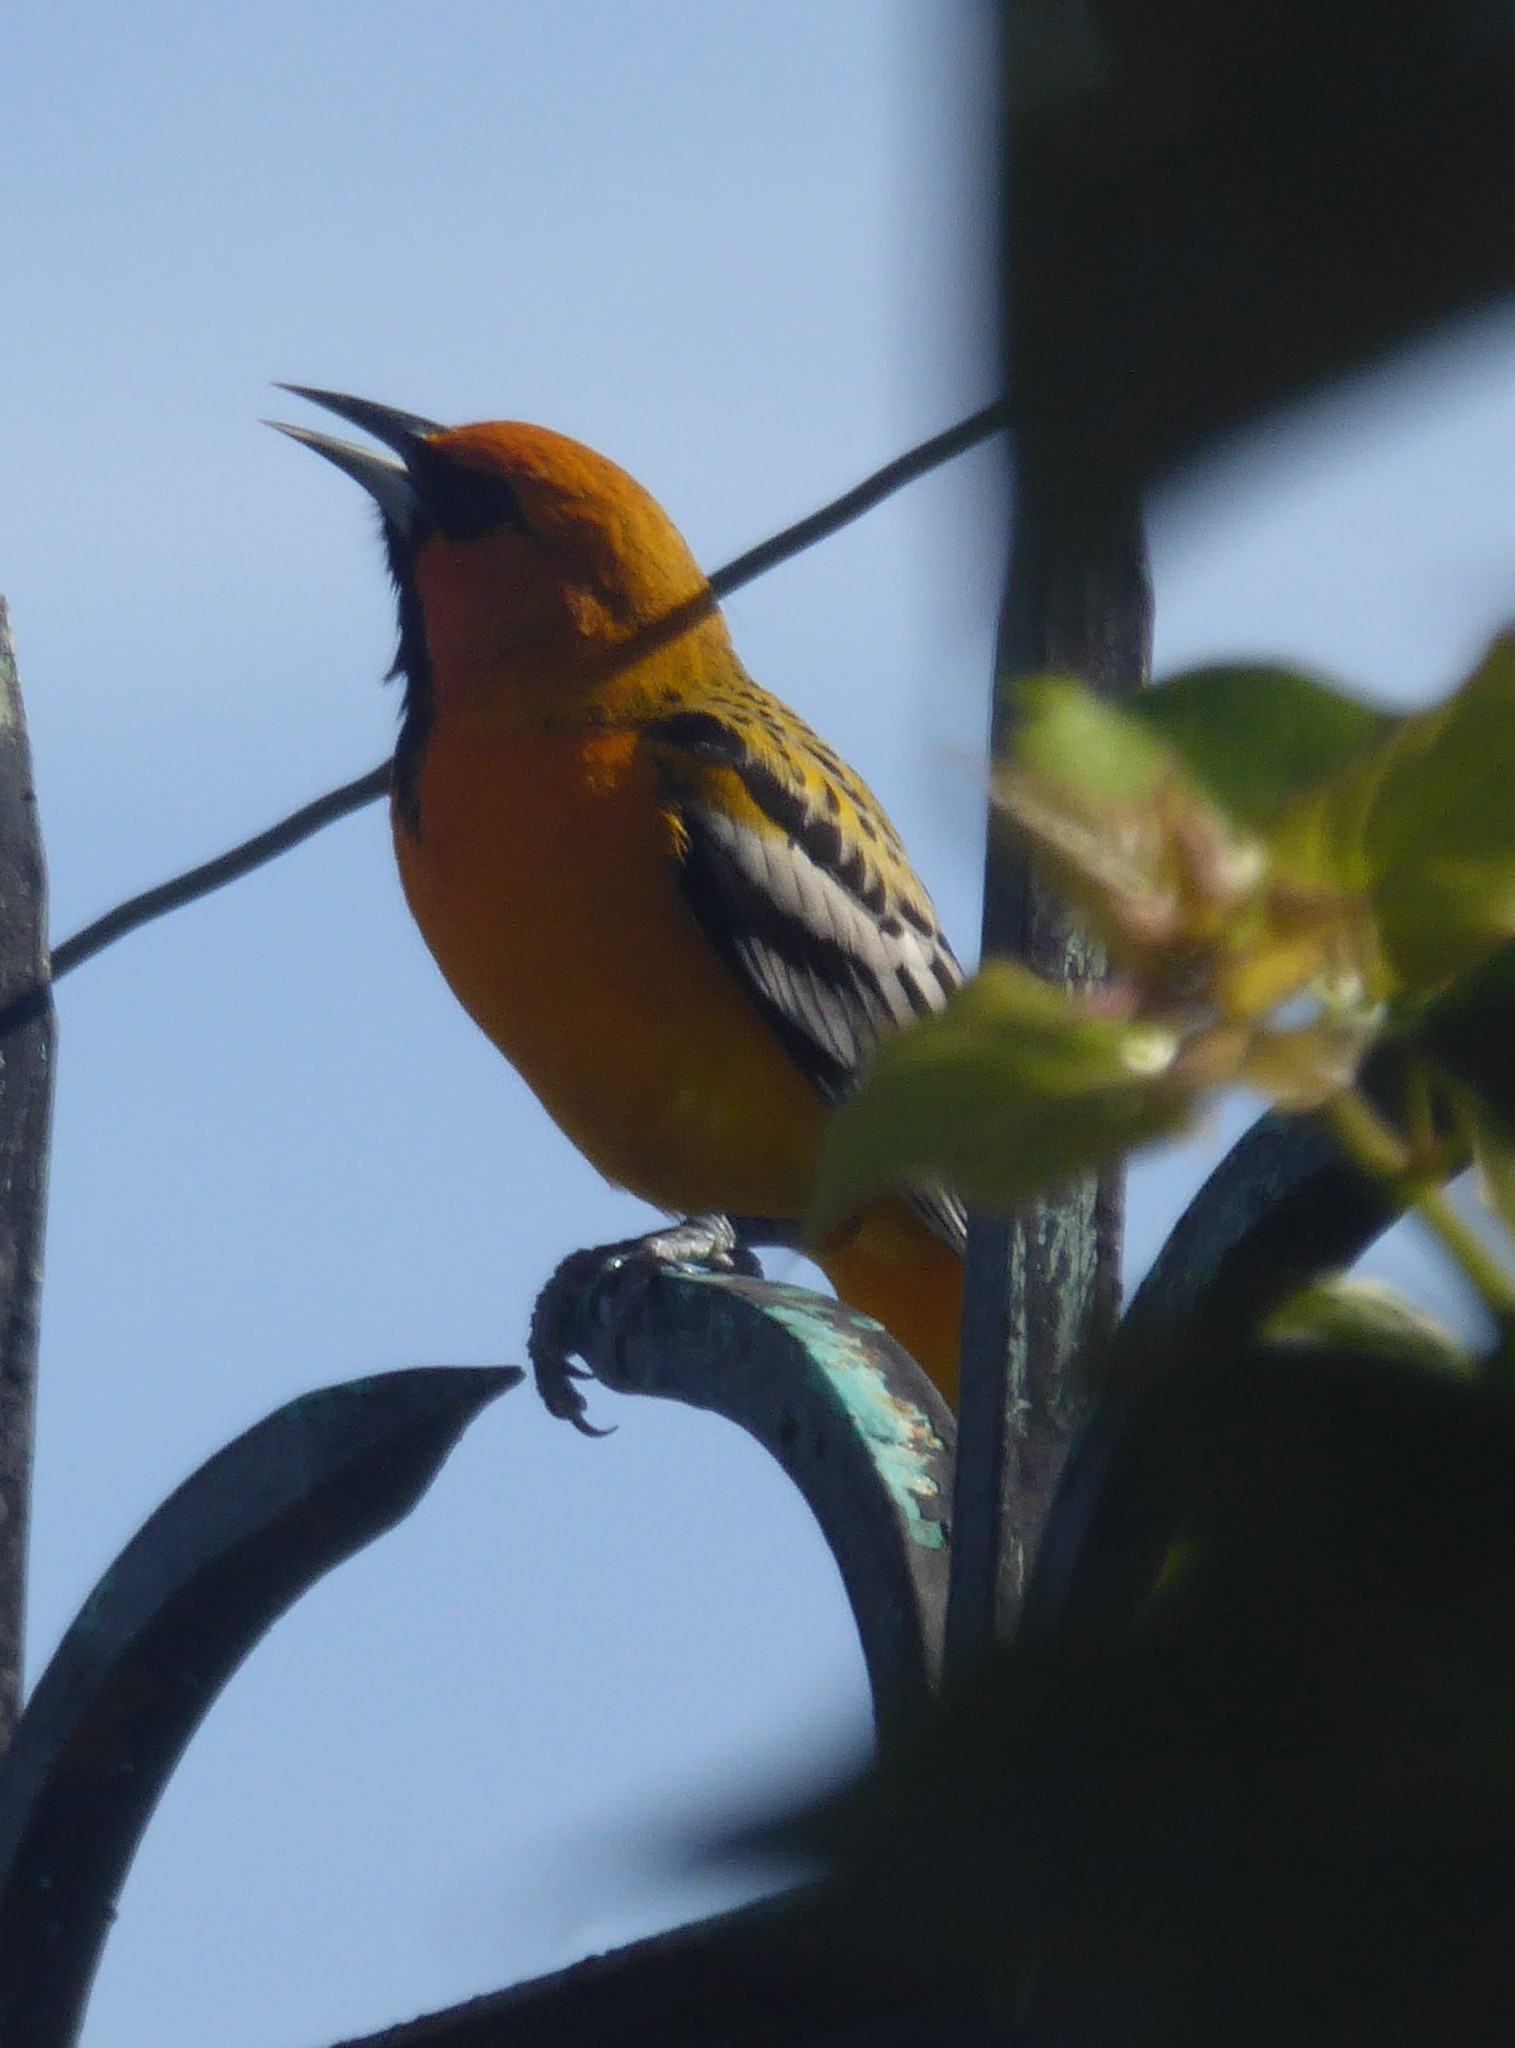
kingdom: Animalia
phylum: Chordata
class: Aves
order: Passeriformes
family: Icteridae
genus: Icterus
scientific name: Icterus pustulatus
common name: Streak-backed oriole
